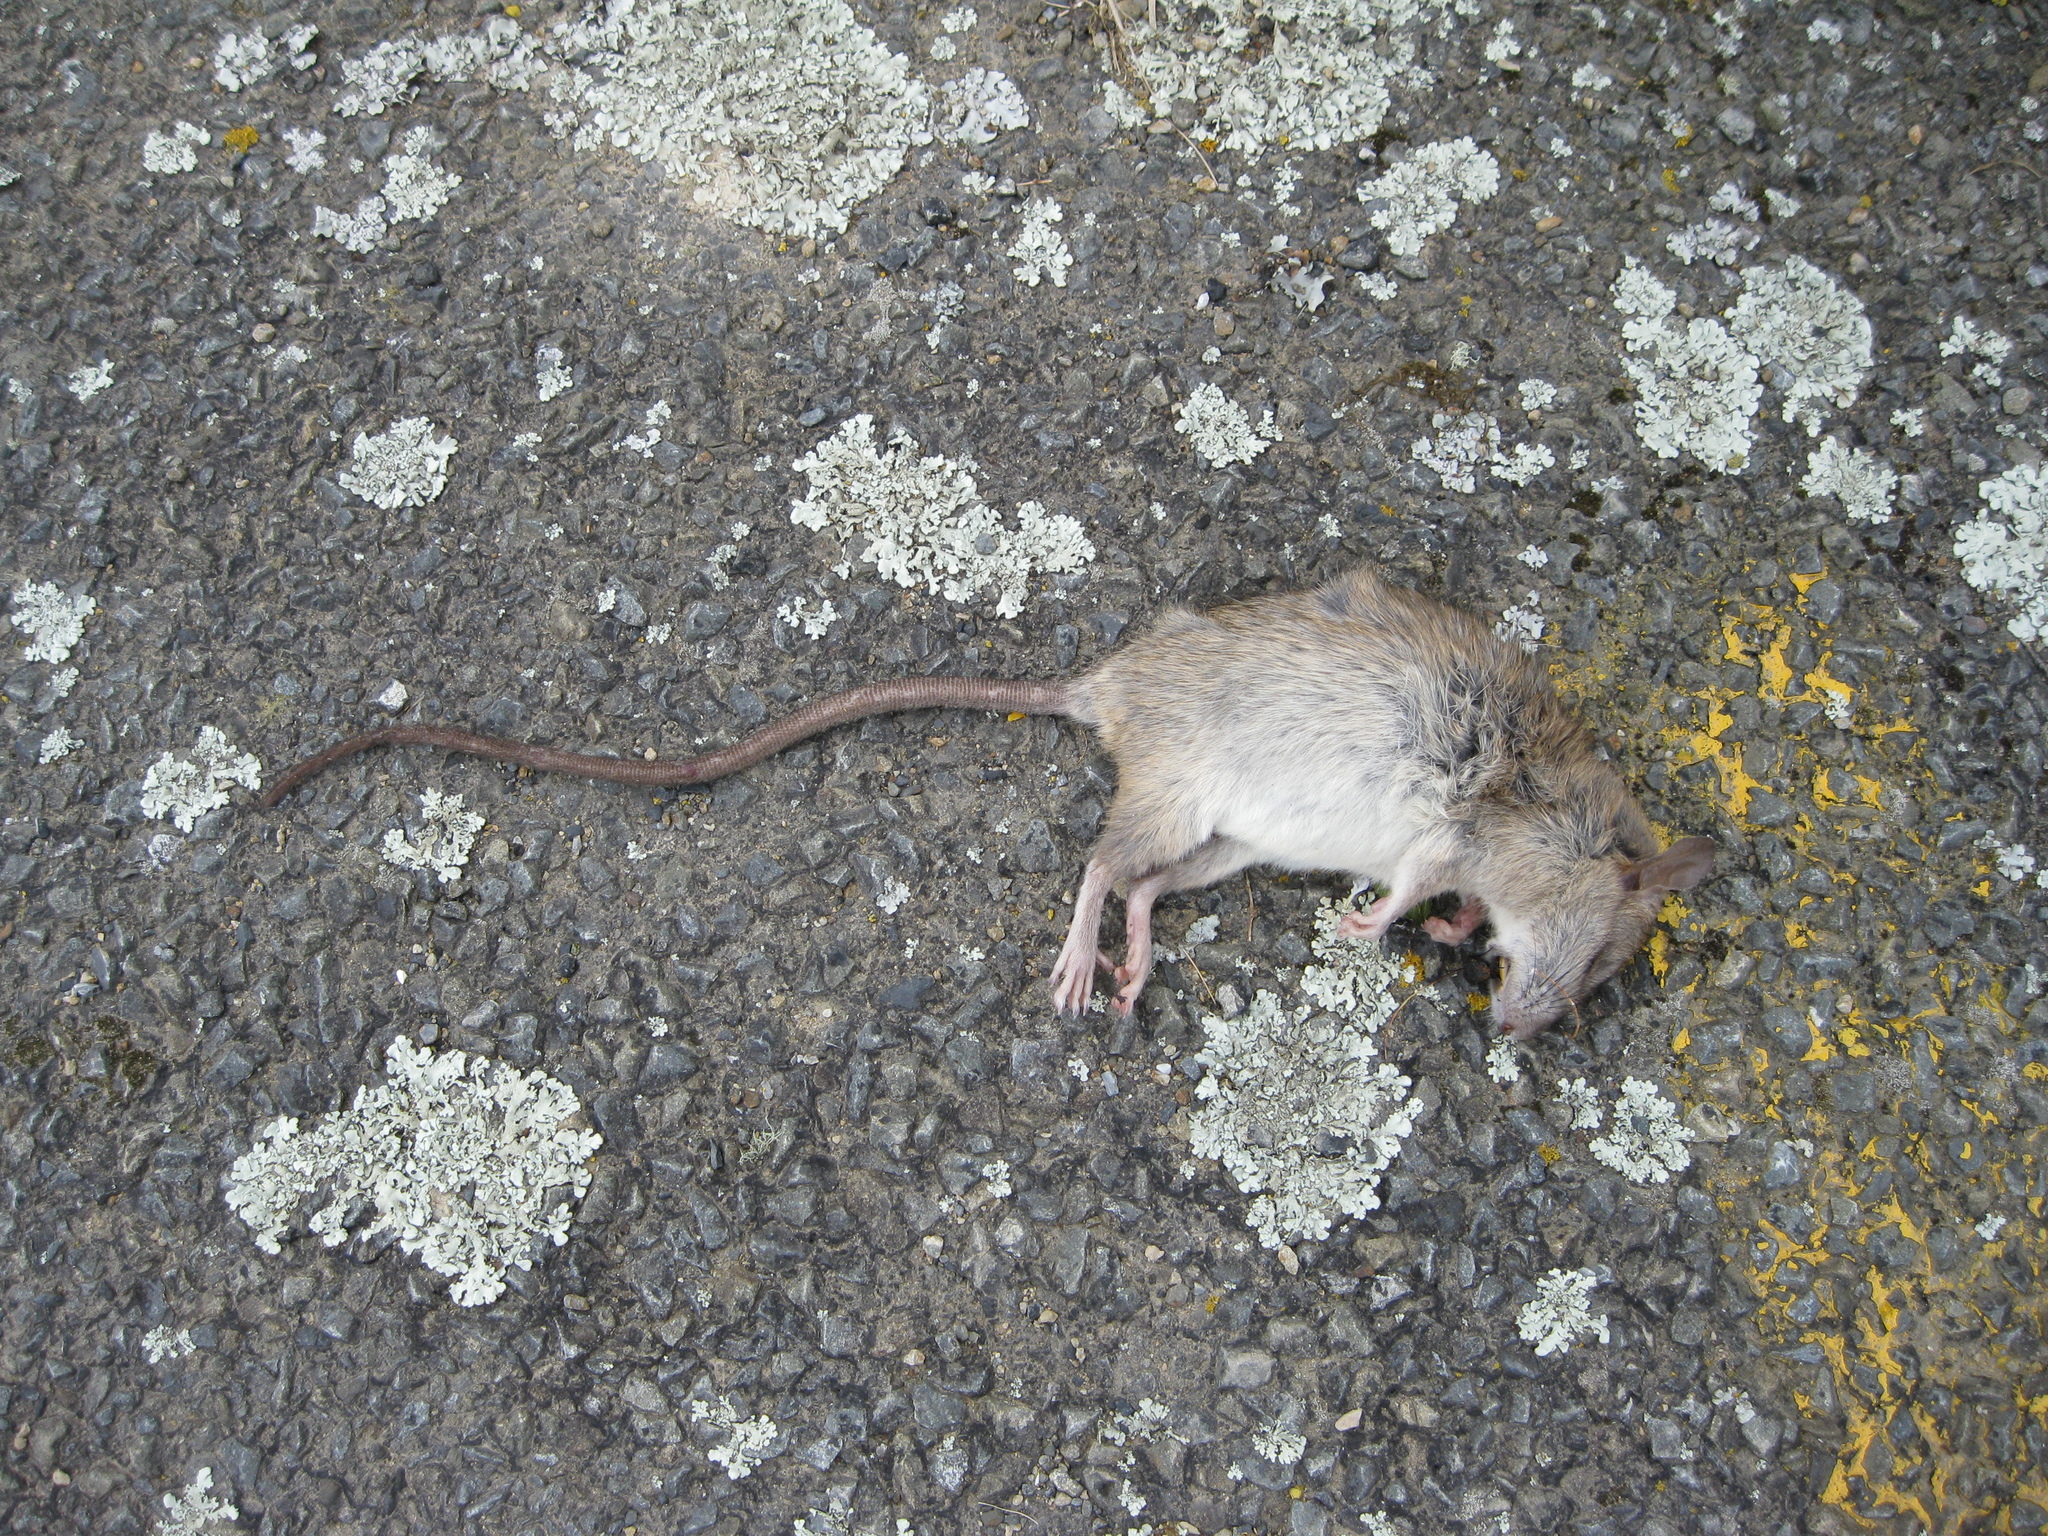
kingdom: Animalia
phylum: Chordata
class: Mammalia
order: Rodentia
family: Muridae
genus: Rattus
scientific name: Rattus rattus
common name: Black rat
